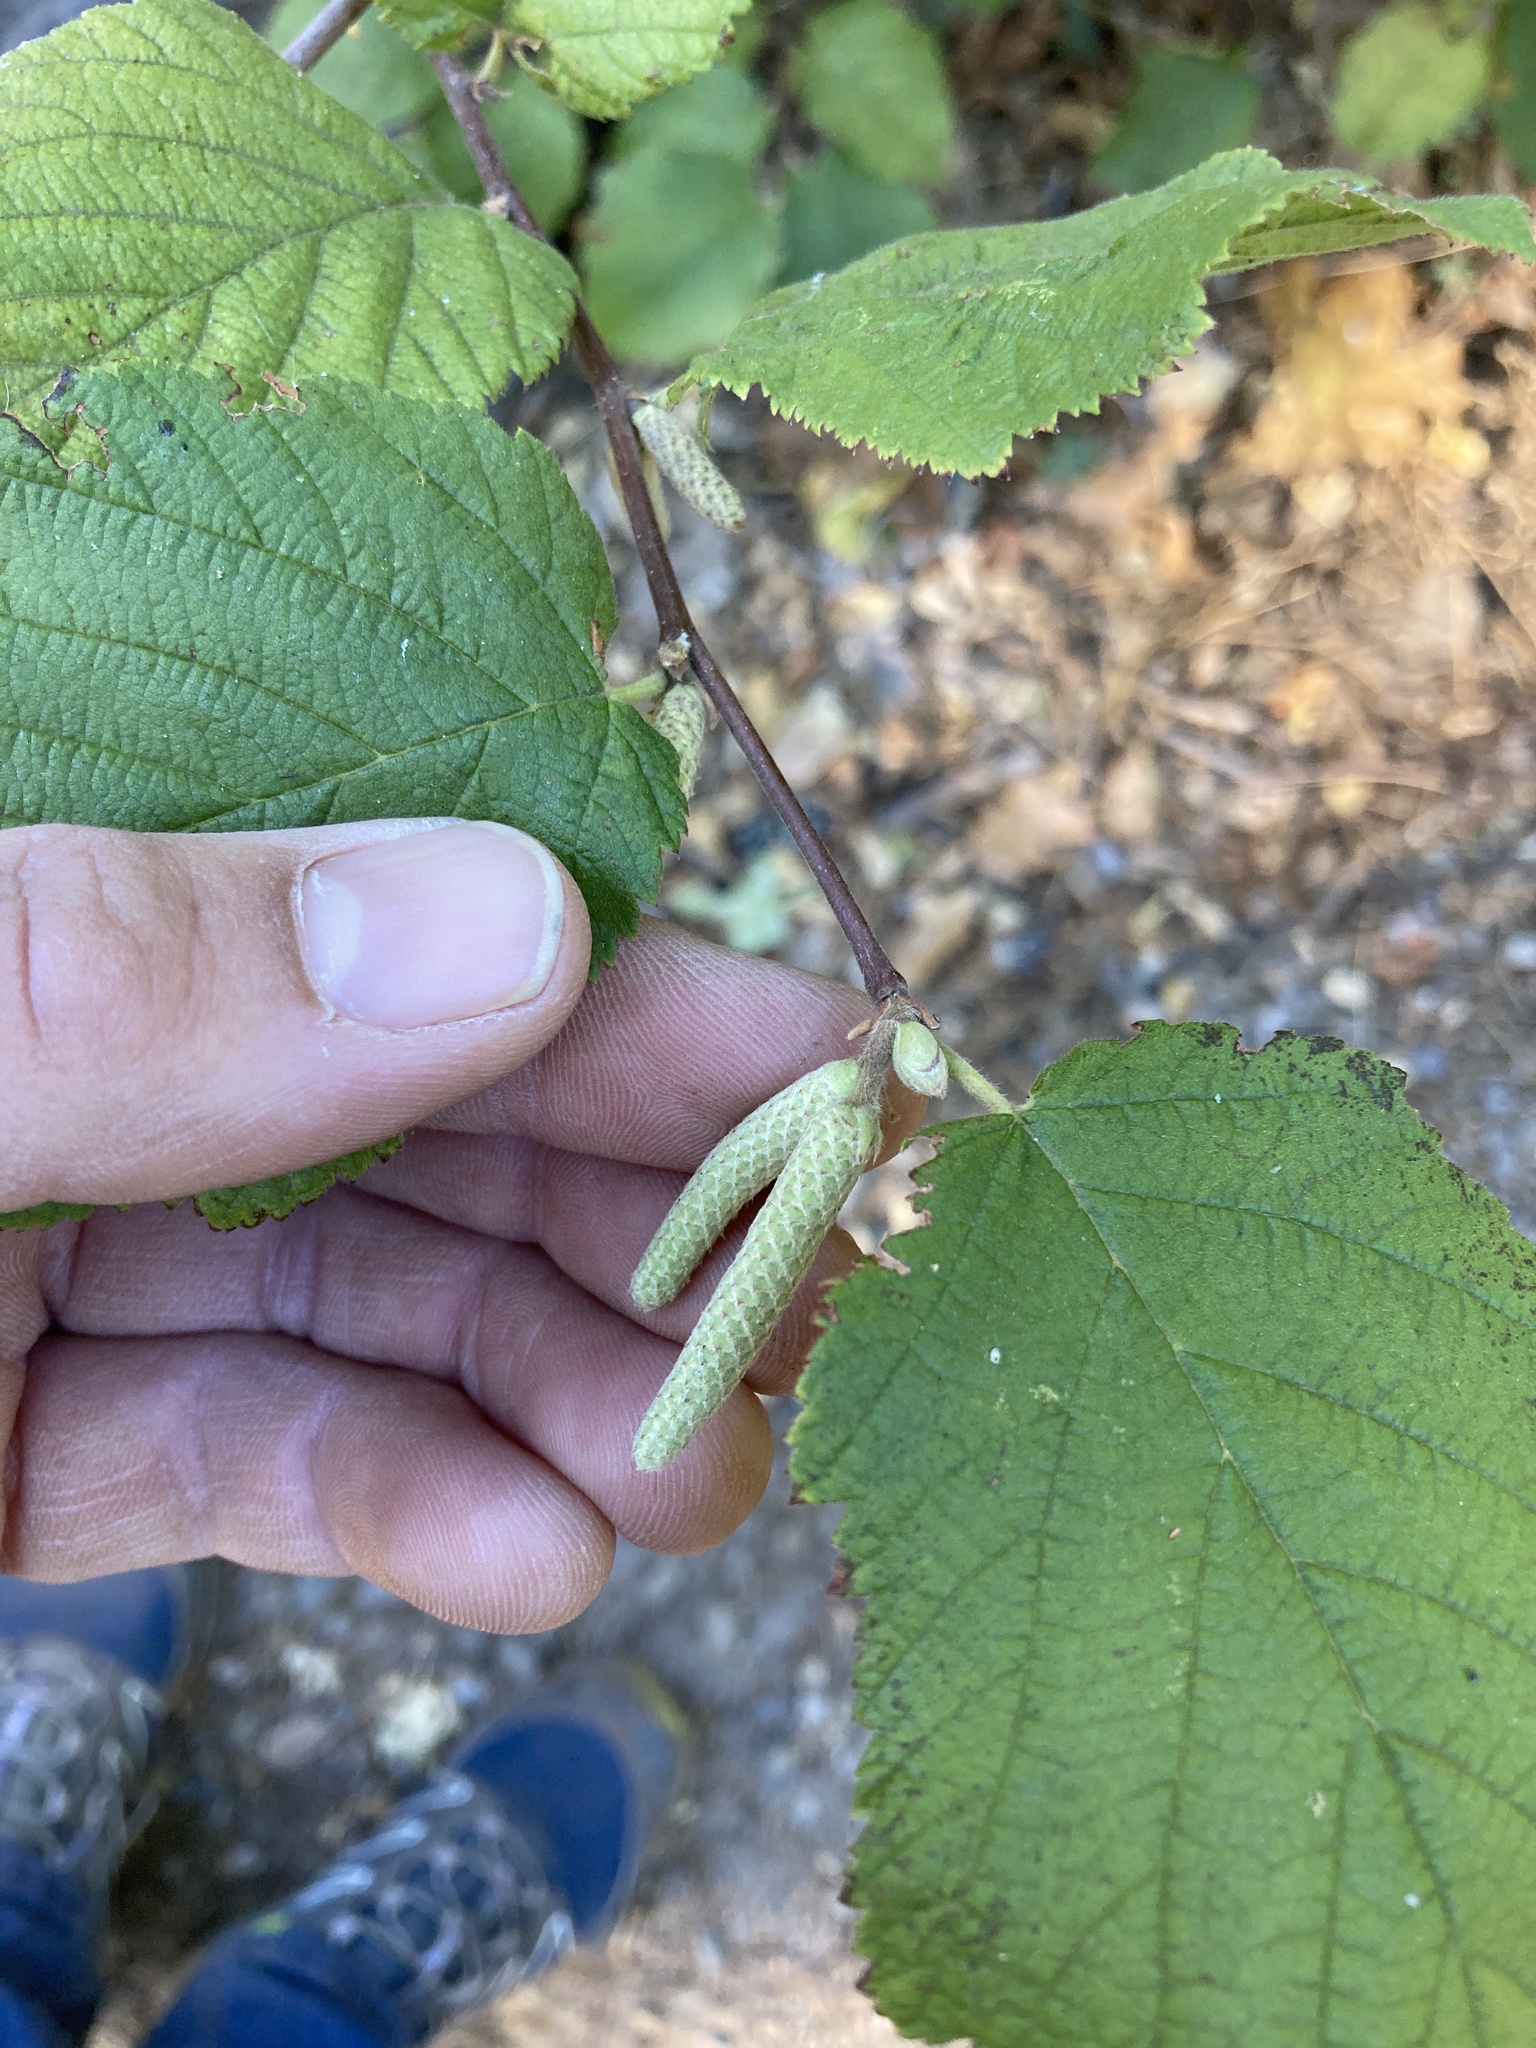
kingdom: Plantae
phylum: Tracheophyta
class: Magnoliopsida
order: Fagales
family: Betulaceae
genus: Corylus
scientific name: Corylus cornuta
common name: Beaked hazel
